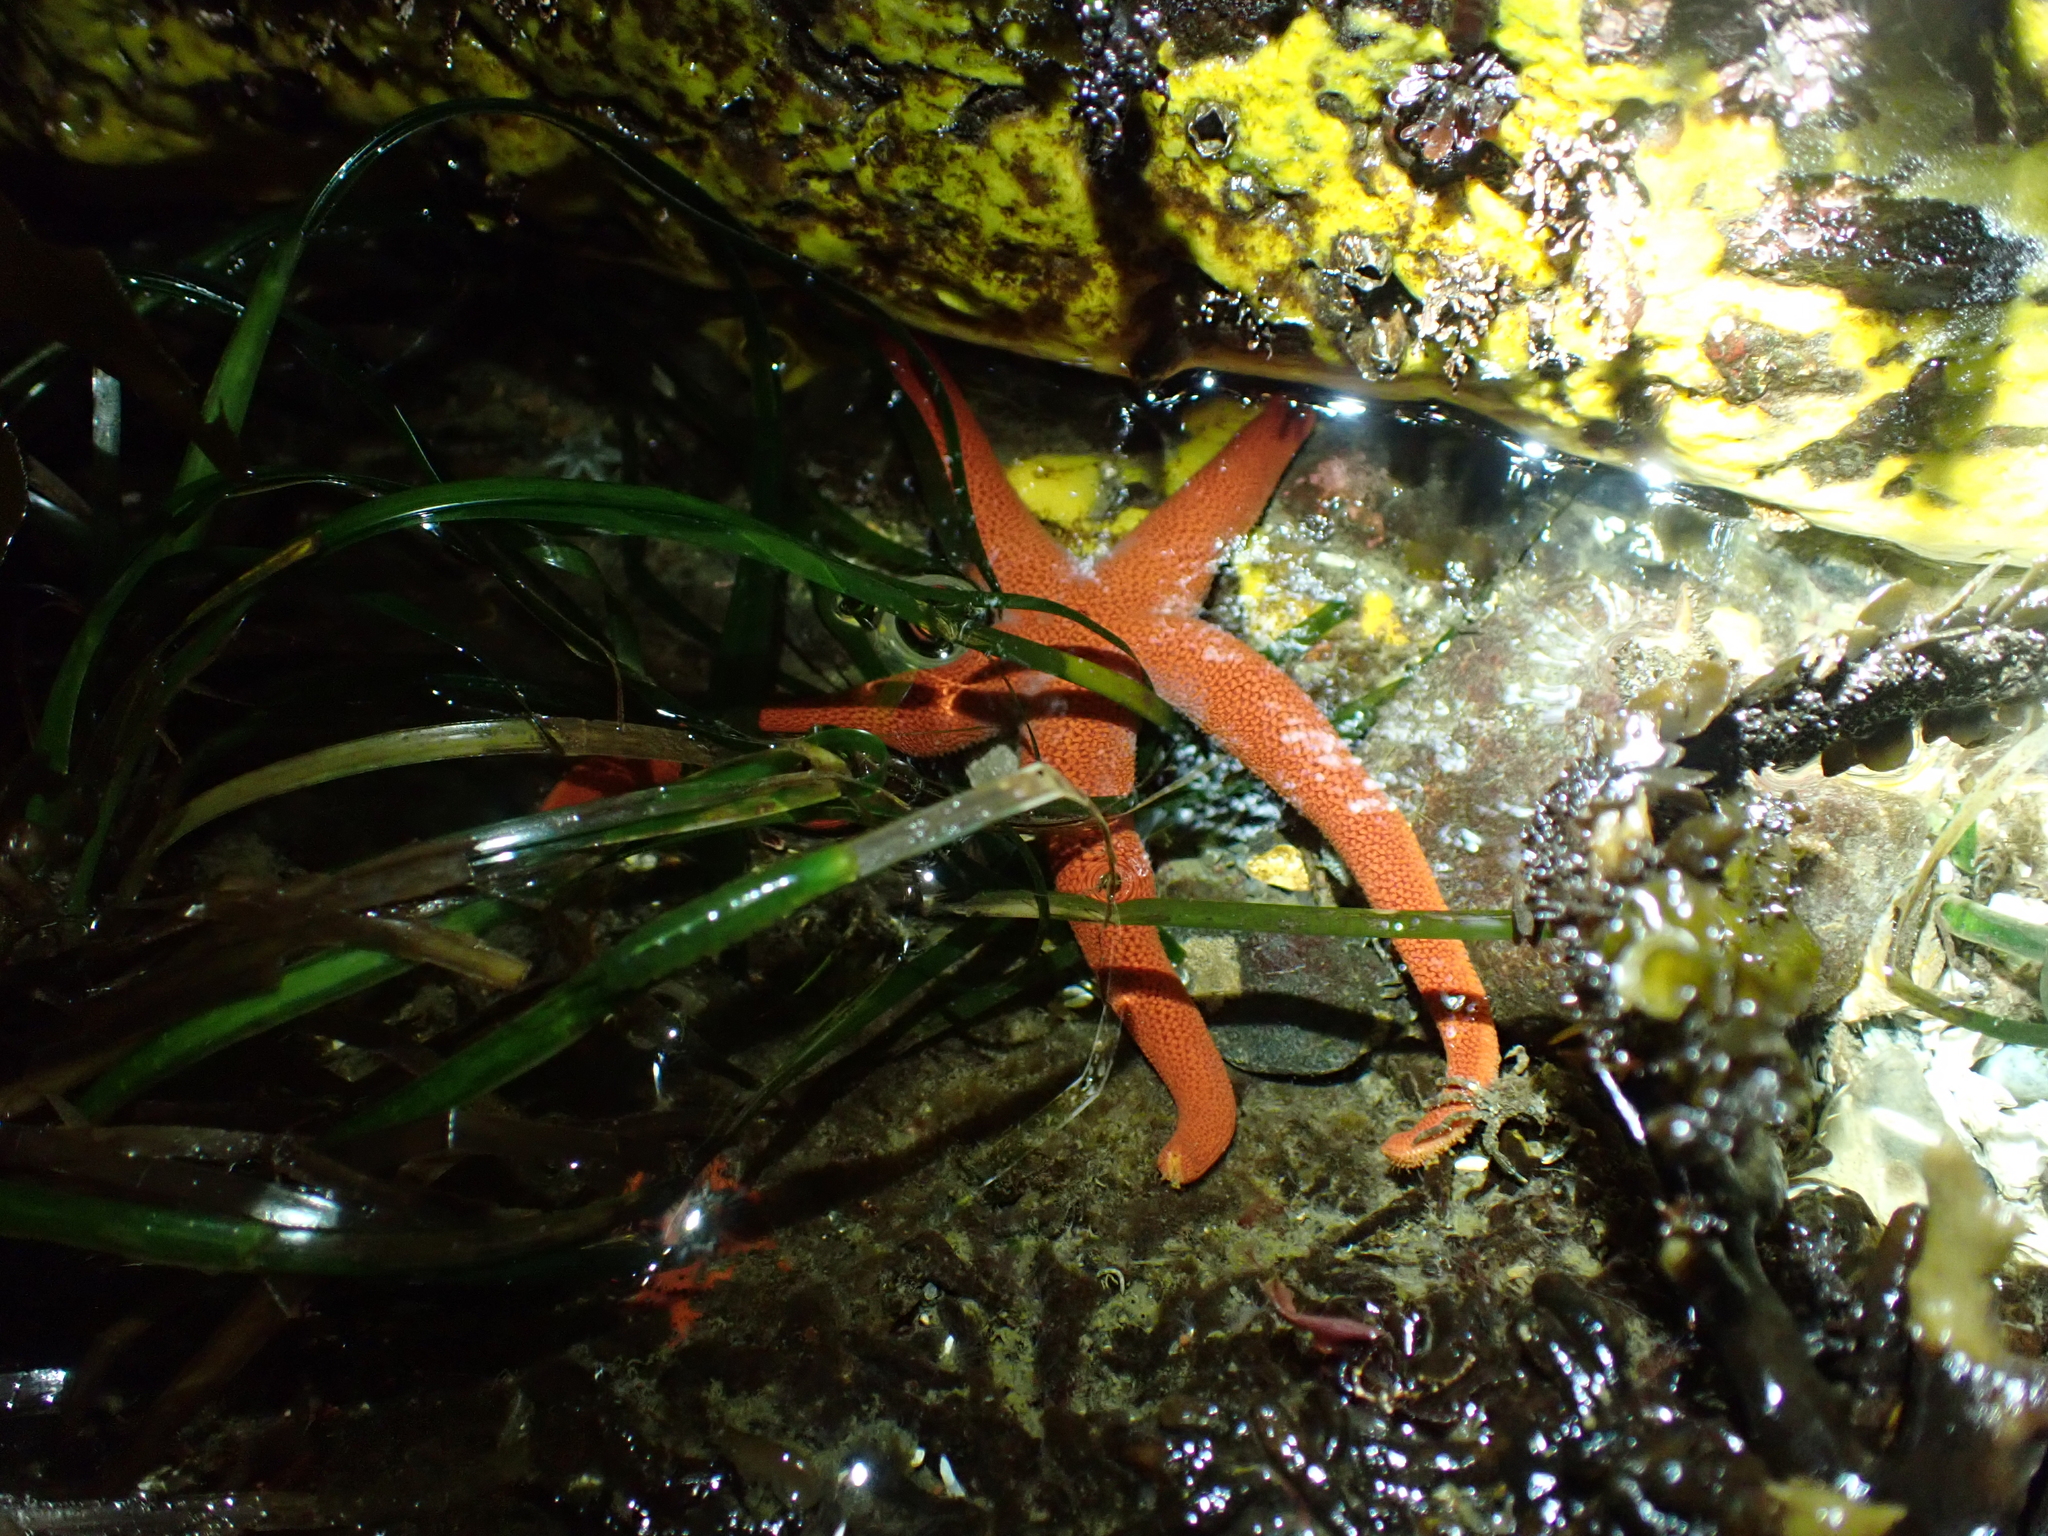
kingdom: Animalia
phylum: Echinodermata
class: Asteroidea
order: Spinulosida
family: Echinasteridae
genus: Henricia
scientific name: Henricia
